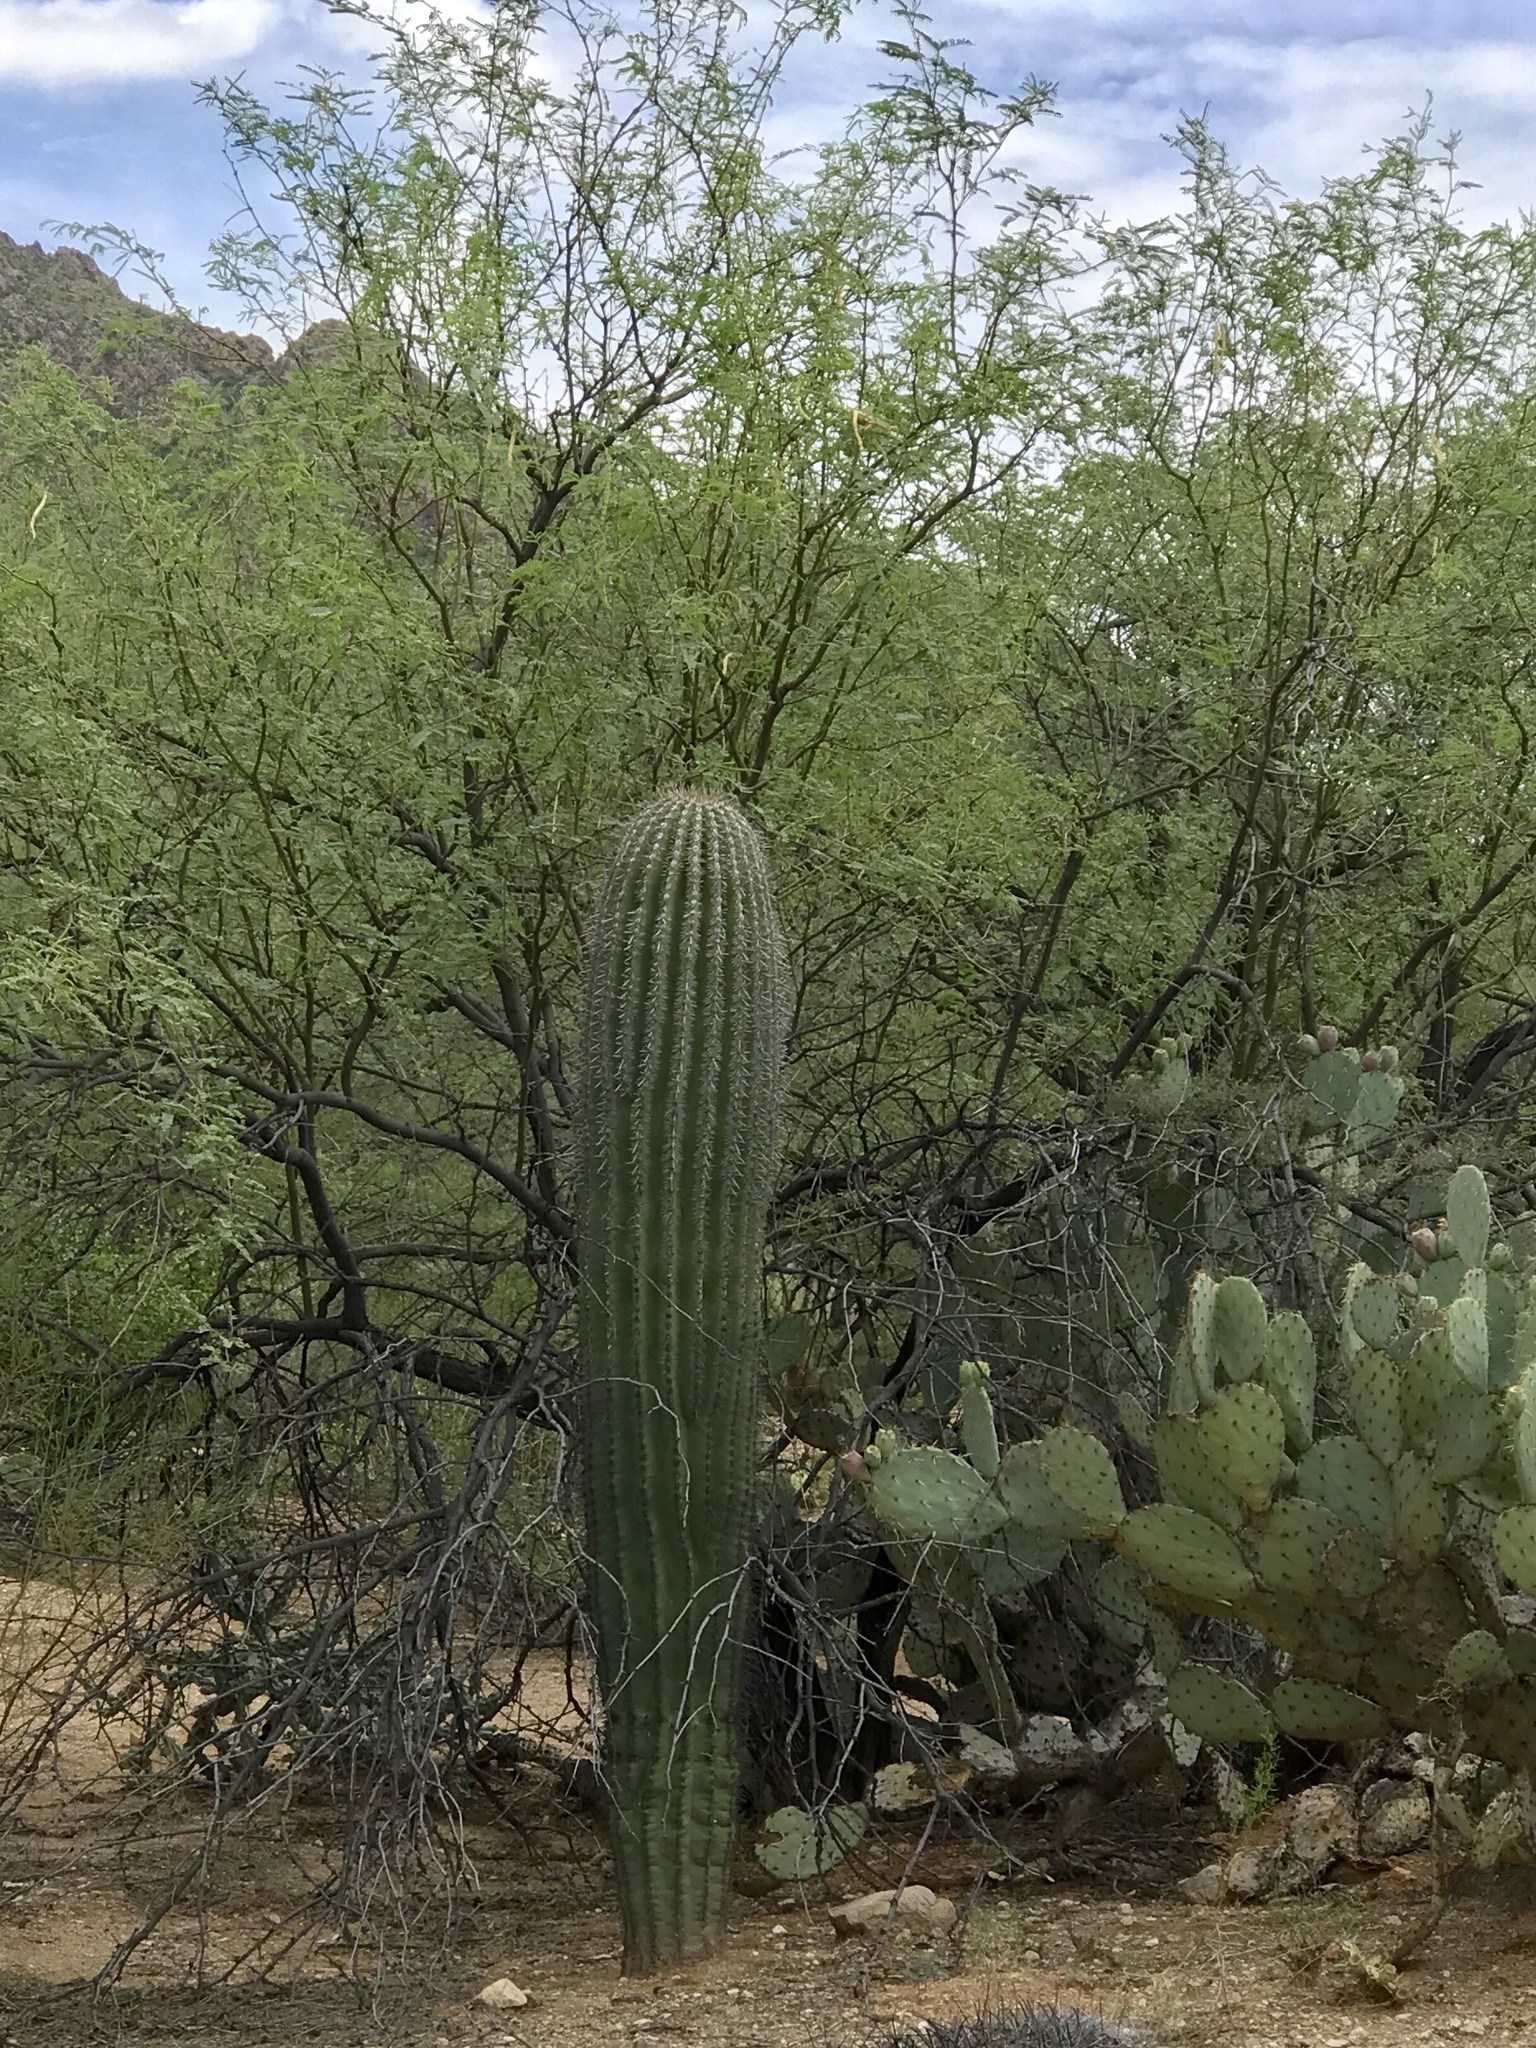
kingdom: Plantae
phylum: Tracheophyta
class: Magnoliopsida
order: Caryophyllales
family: Cactaceae
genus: Carnegiea
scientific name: Carnegiea gigantea
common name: Saguaro
